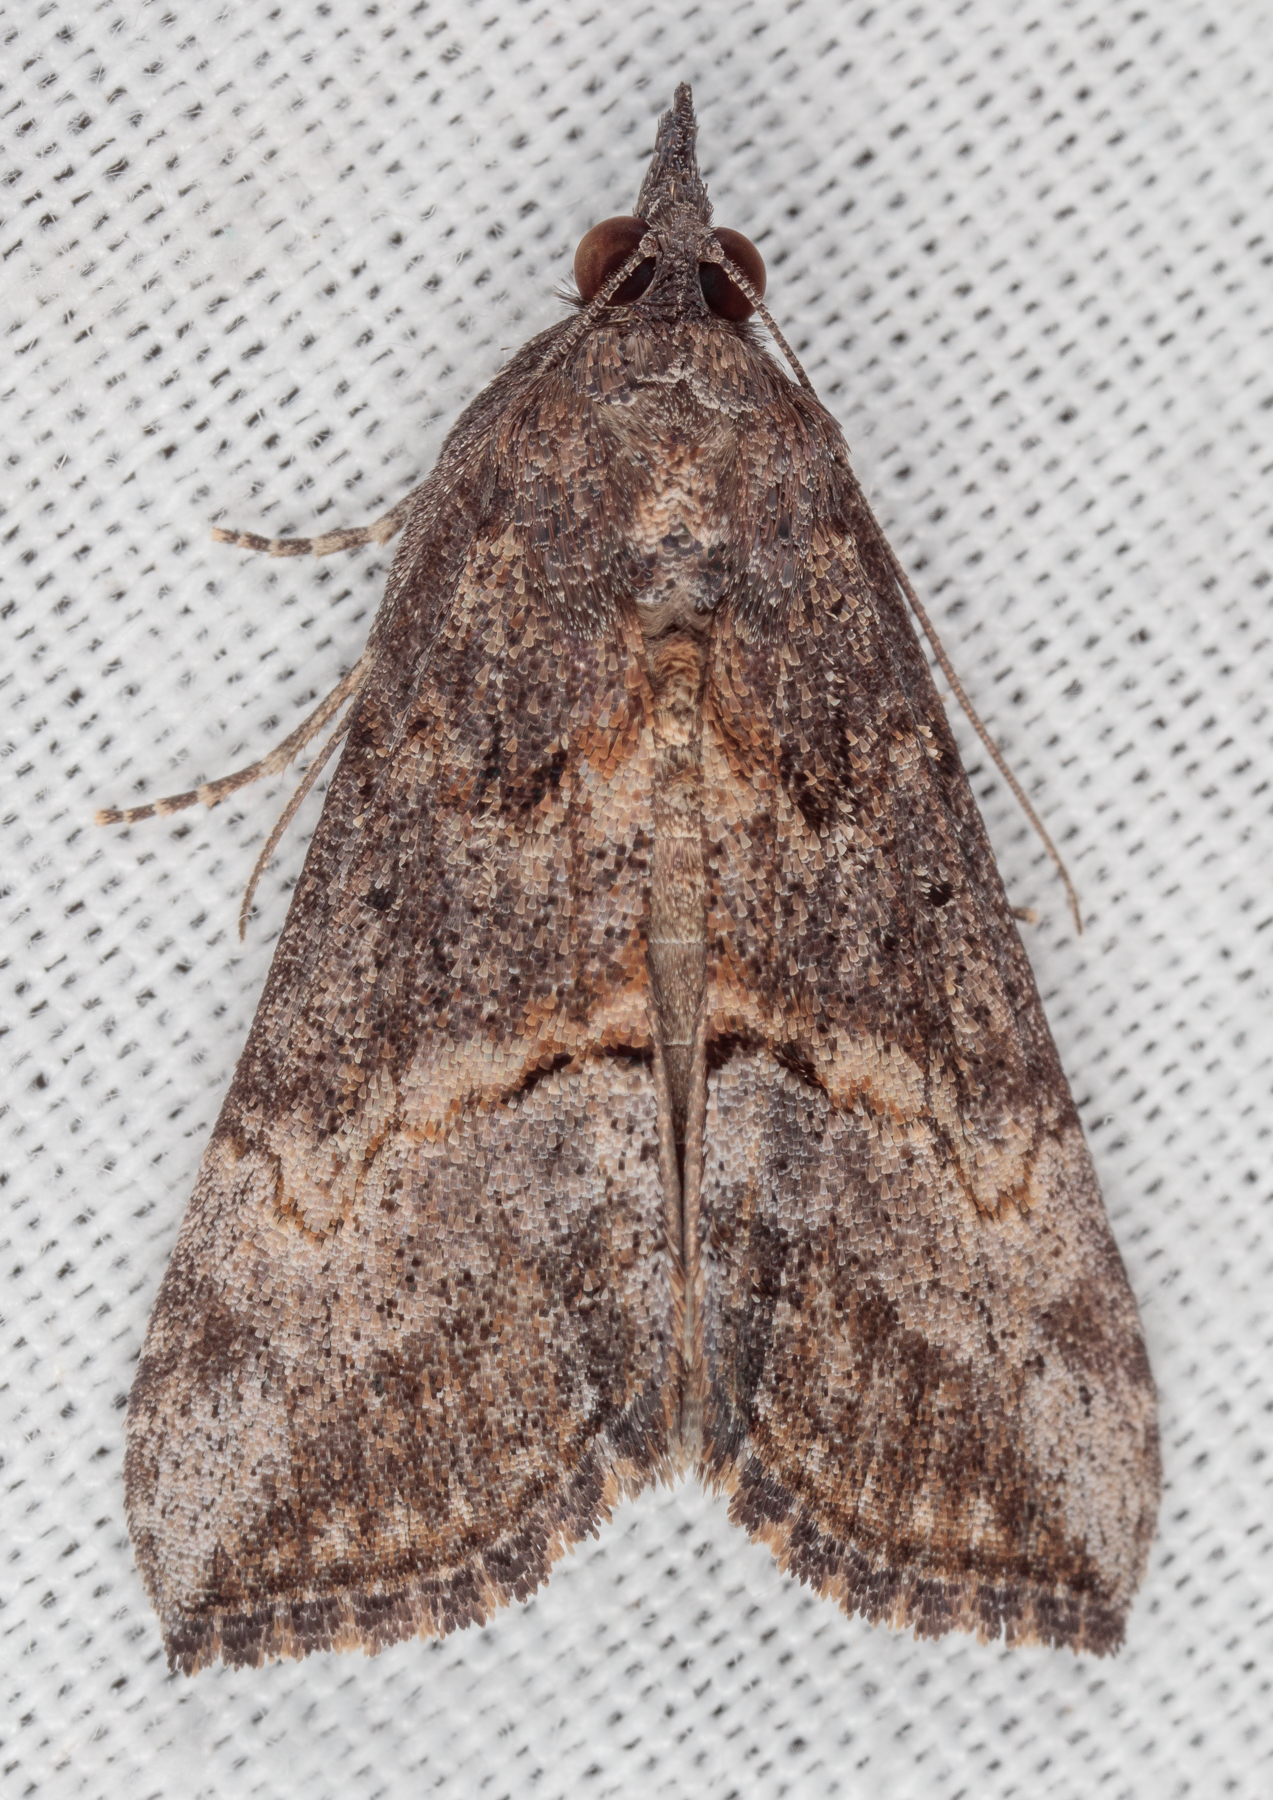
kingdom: Animalia
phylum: Arthropoda
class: Insecta
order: Lepidoptera
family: Erebidae
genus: Hypena
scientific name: Hypena scabra
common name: Green cloverworm
